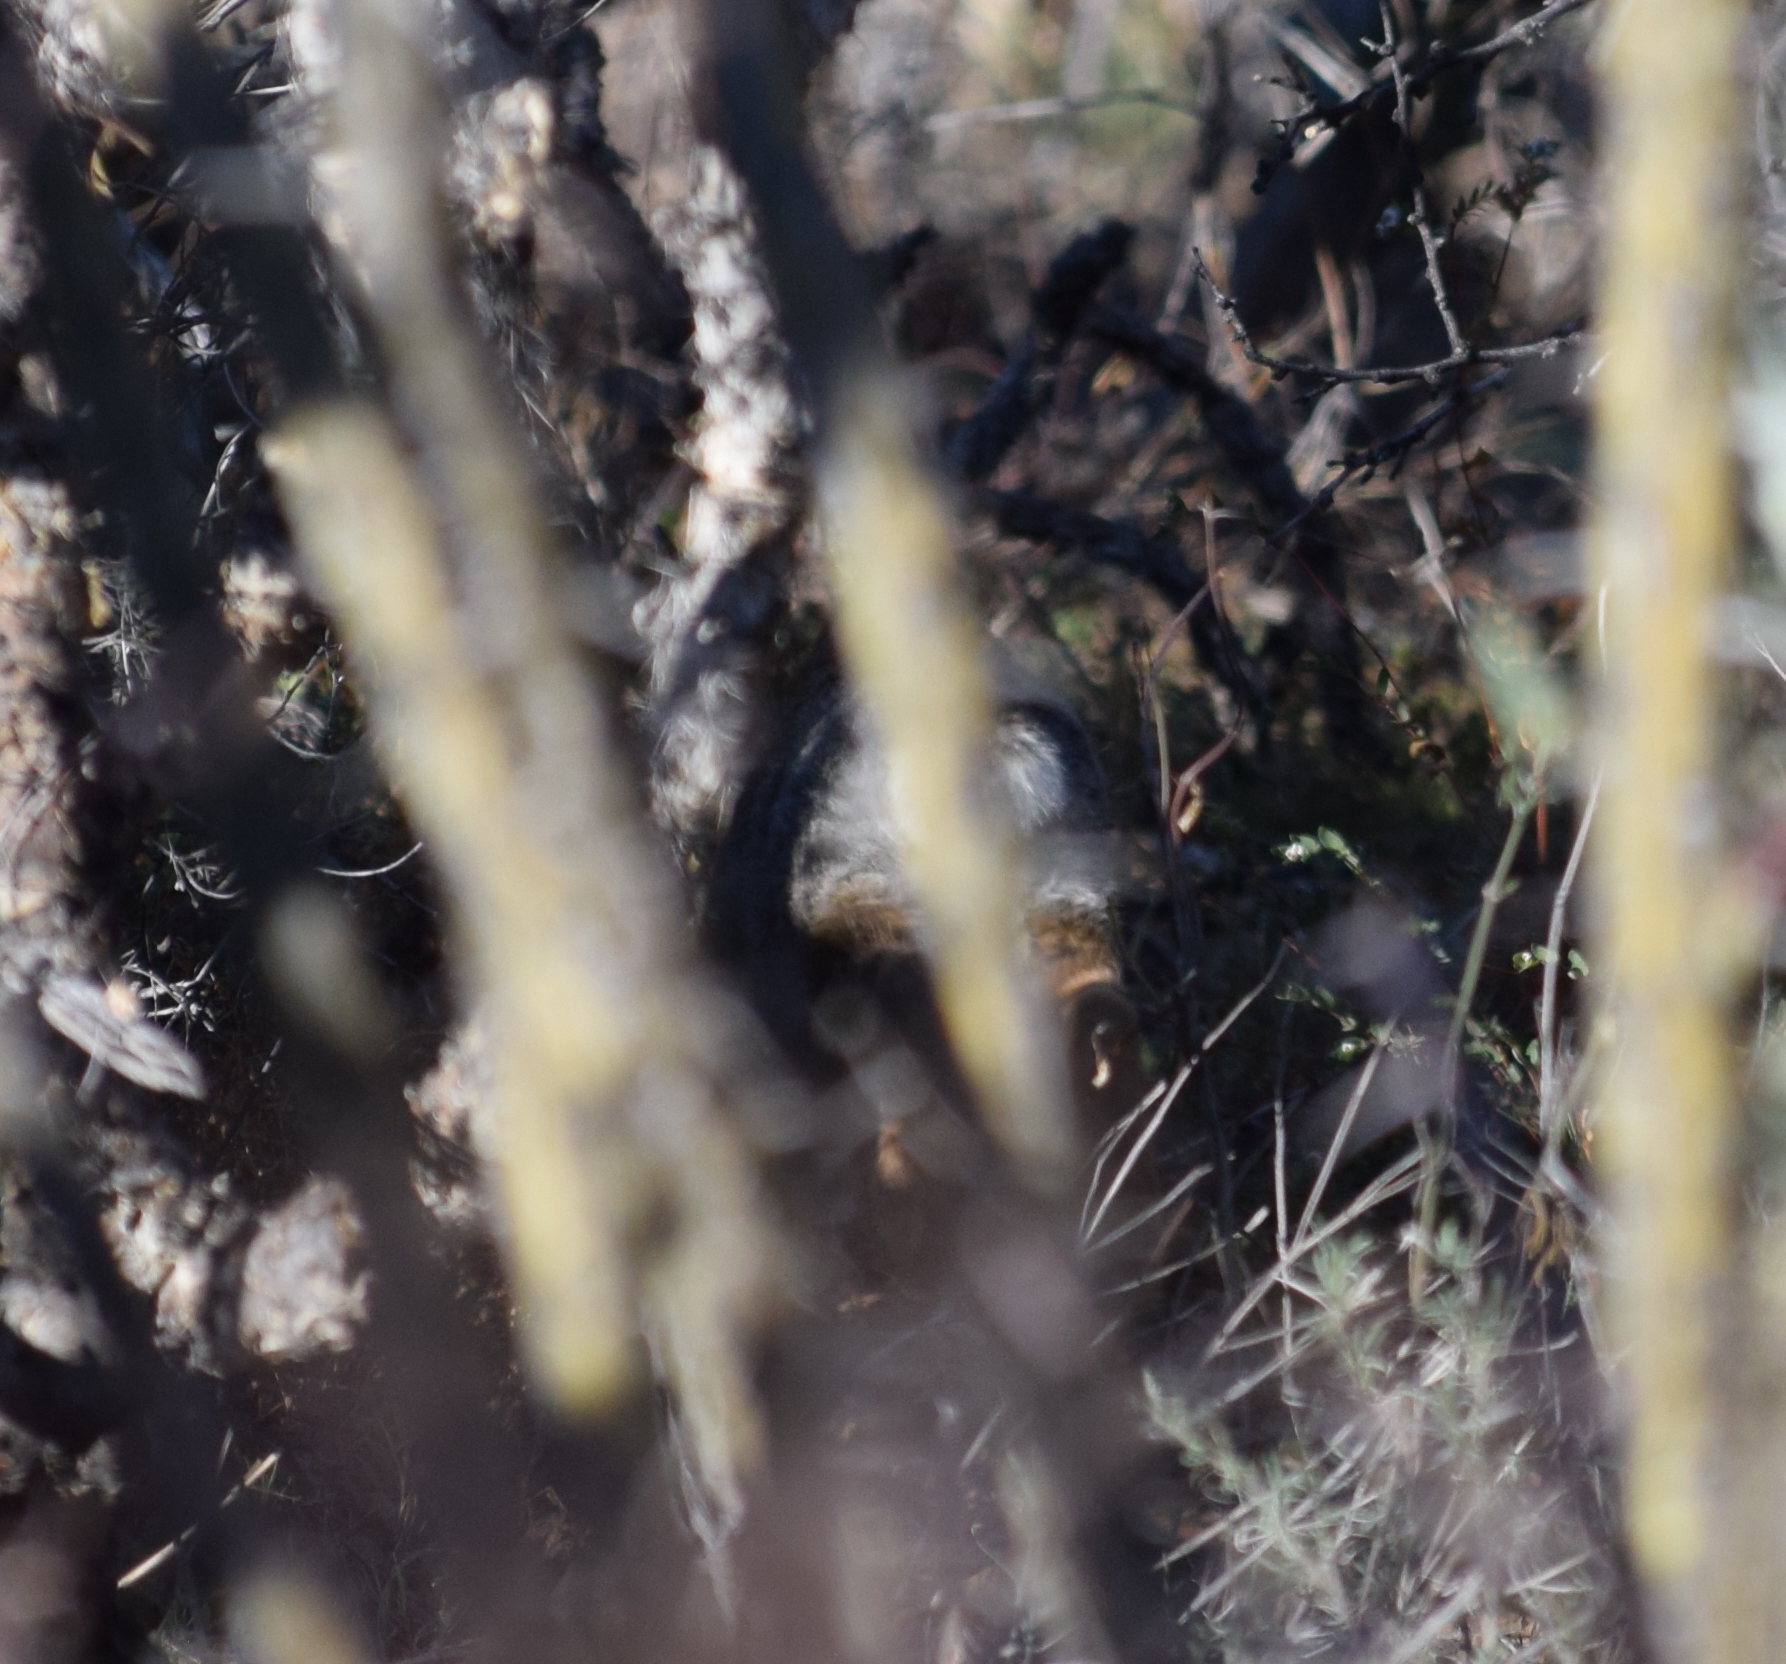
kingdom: Animalia
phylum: Chordata
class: Mammalia
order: Lagomorpha
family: Leporidae
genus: Sylvilagus
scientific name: Sylvilagus audubonii
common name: Desert cottontail
